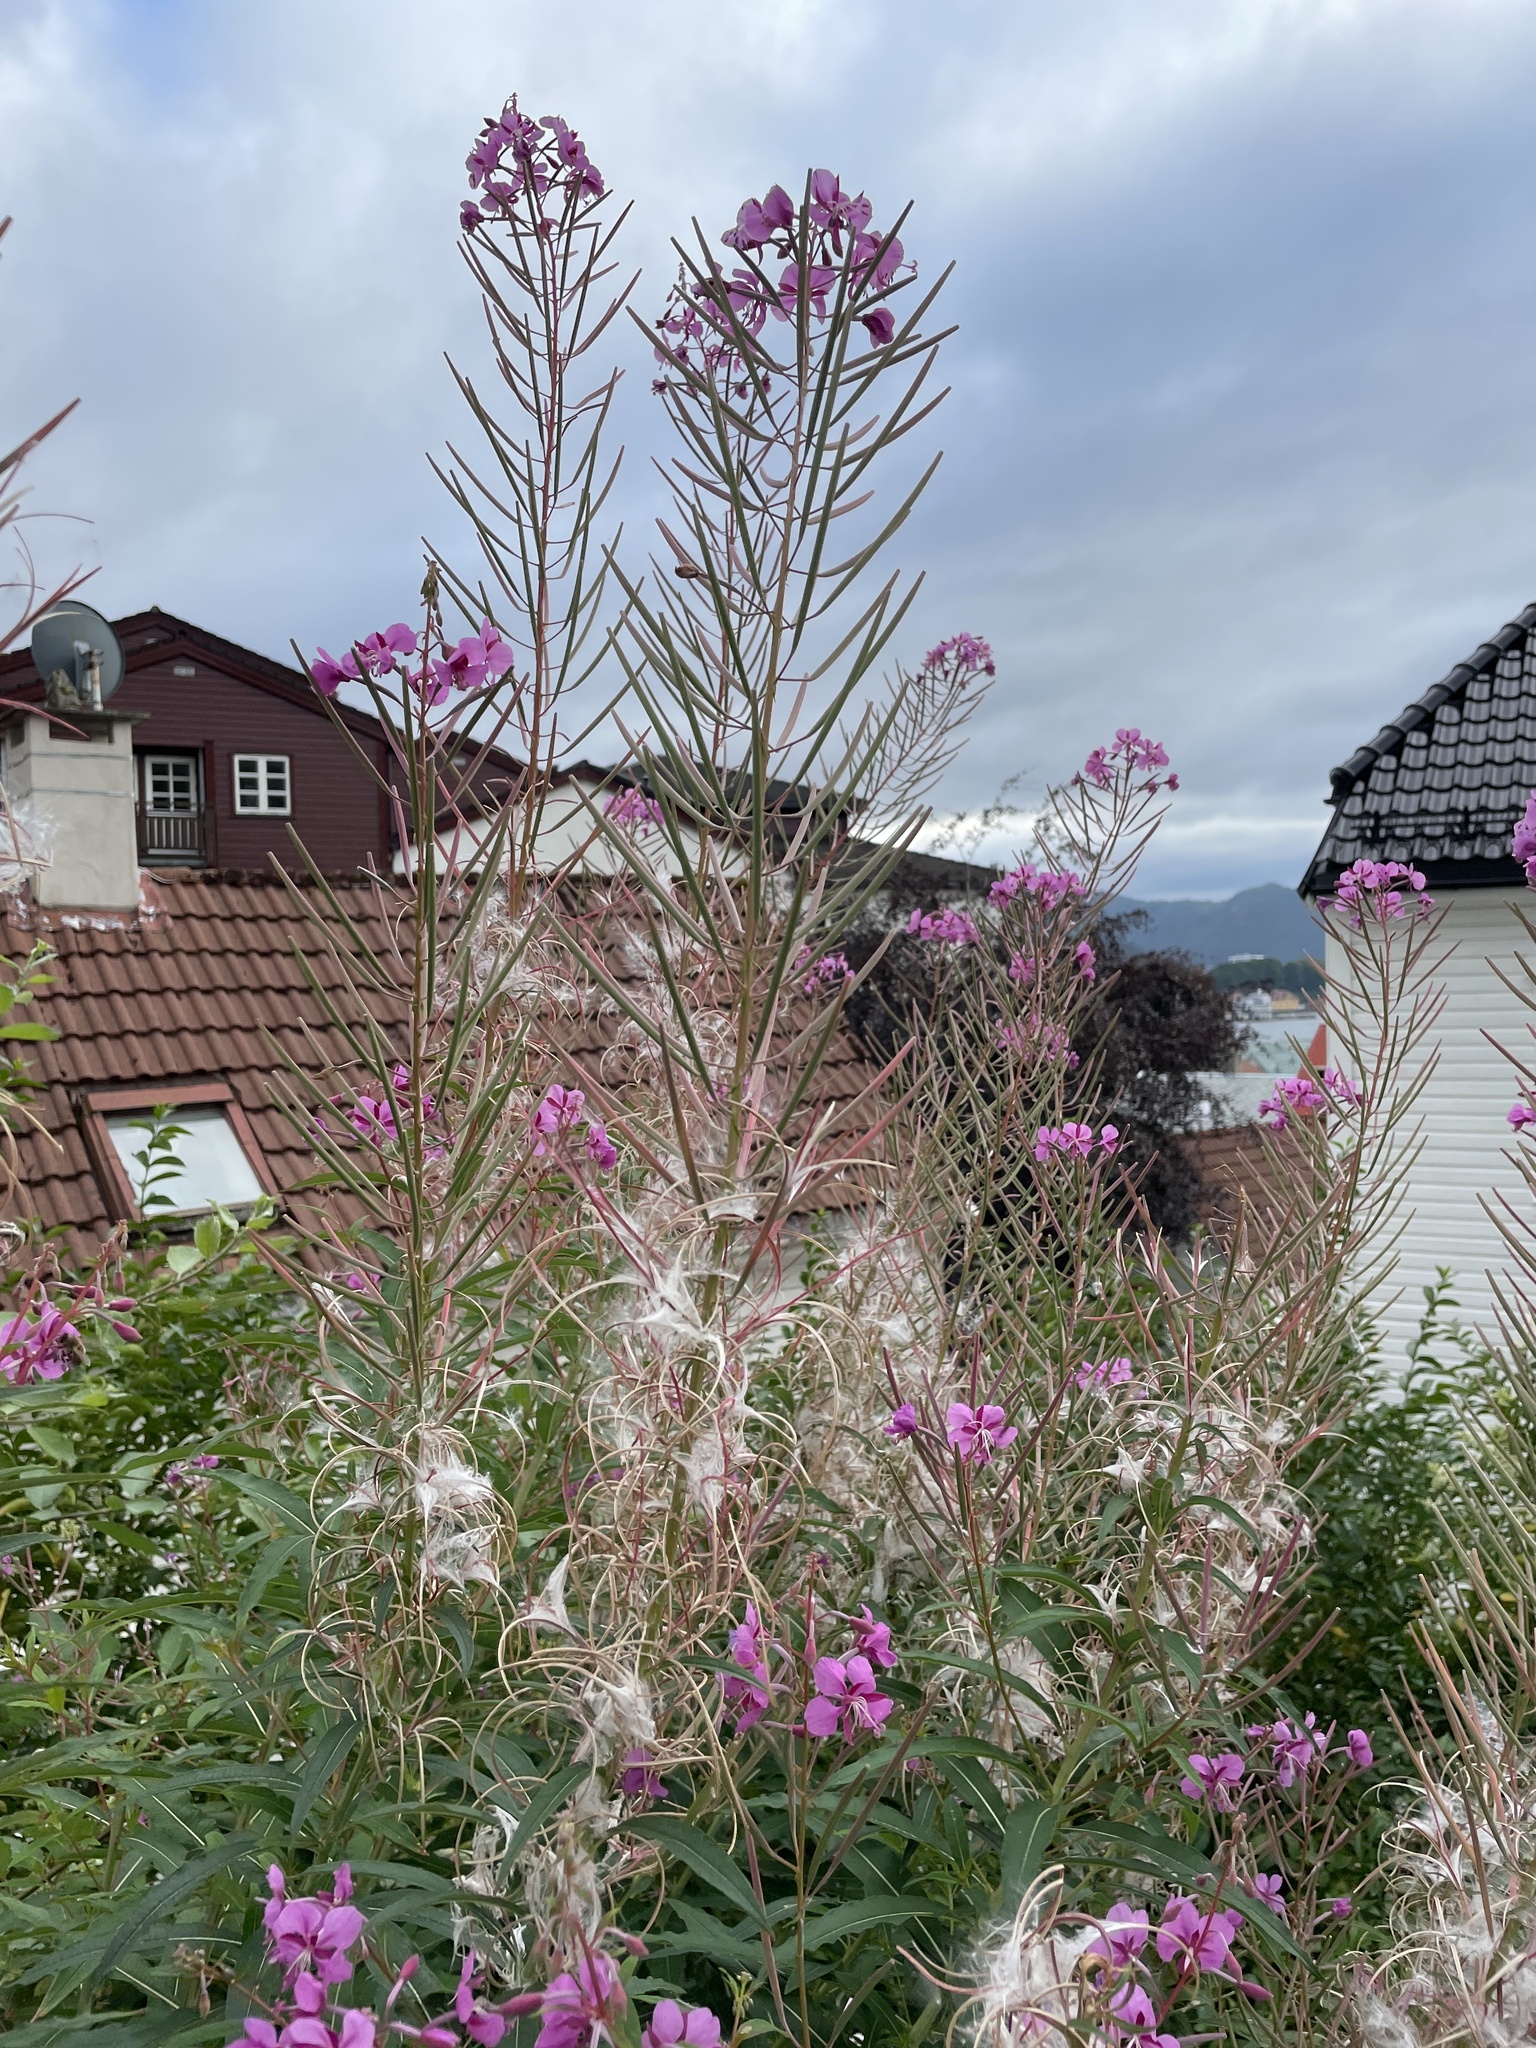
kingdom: Plantae
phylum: Tracheophyta
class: Magnoliopsida
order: Myrtales
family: Onagraceae
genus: Chamaenerion
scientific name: Chamaenerion angustifolium
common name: Fireweed
